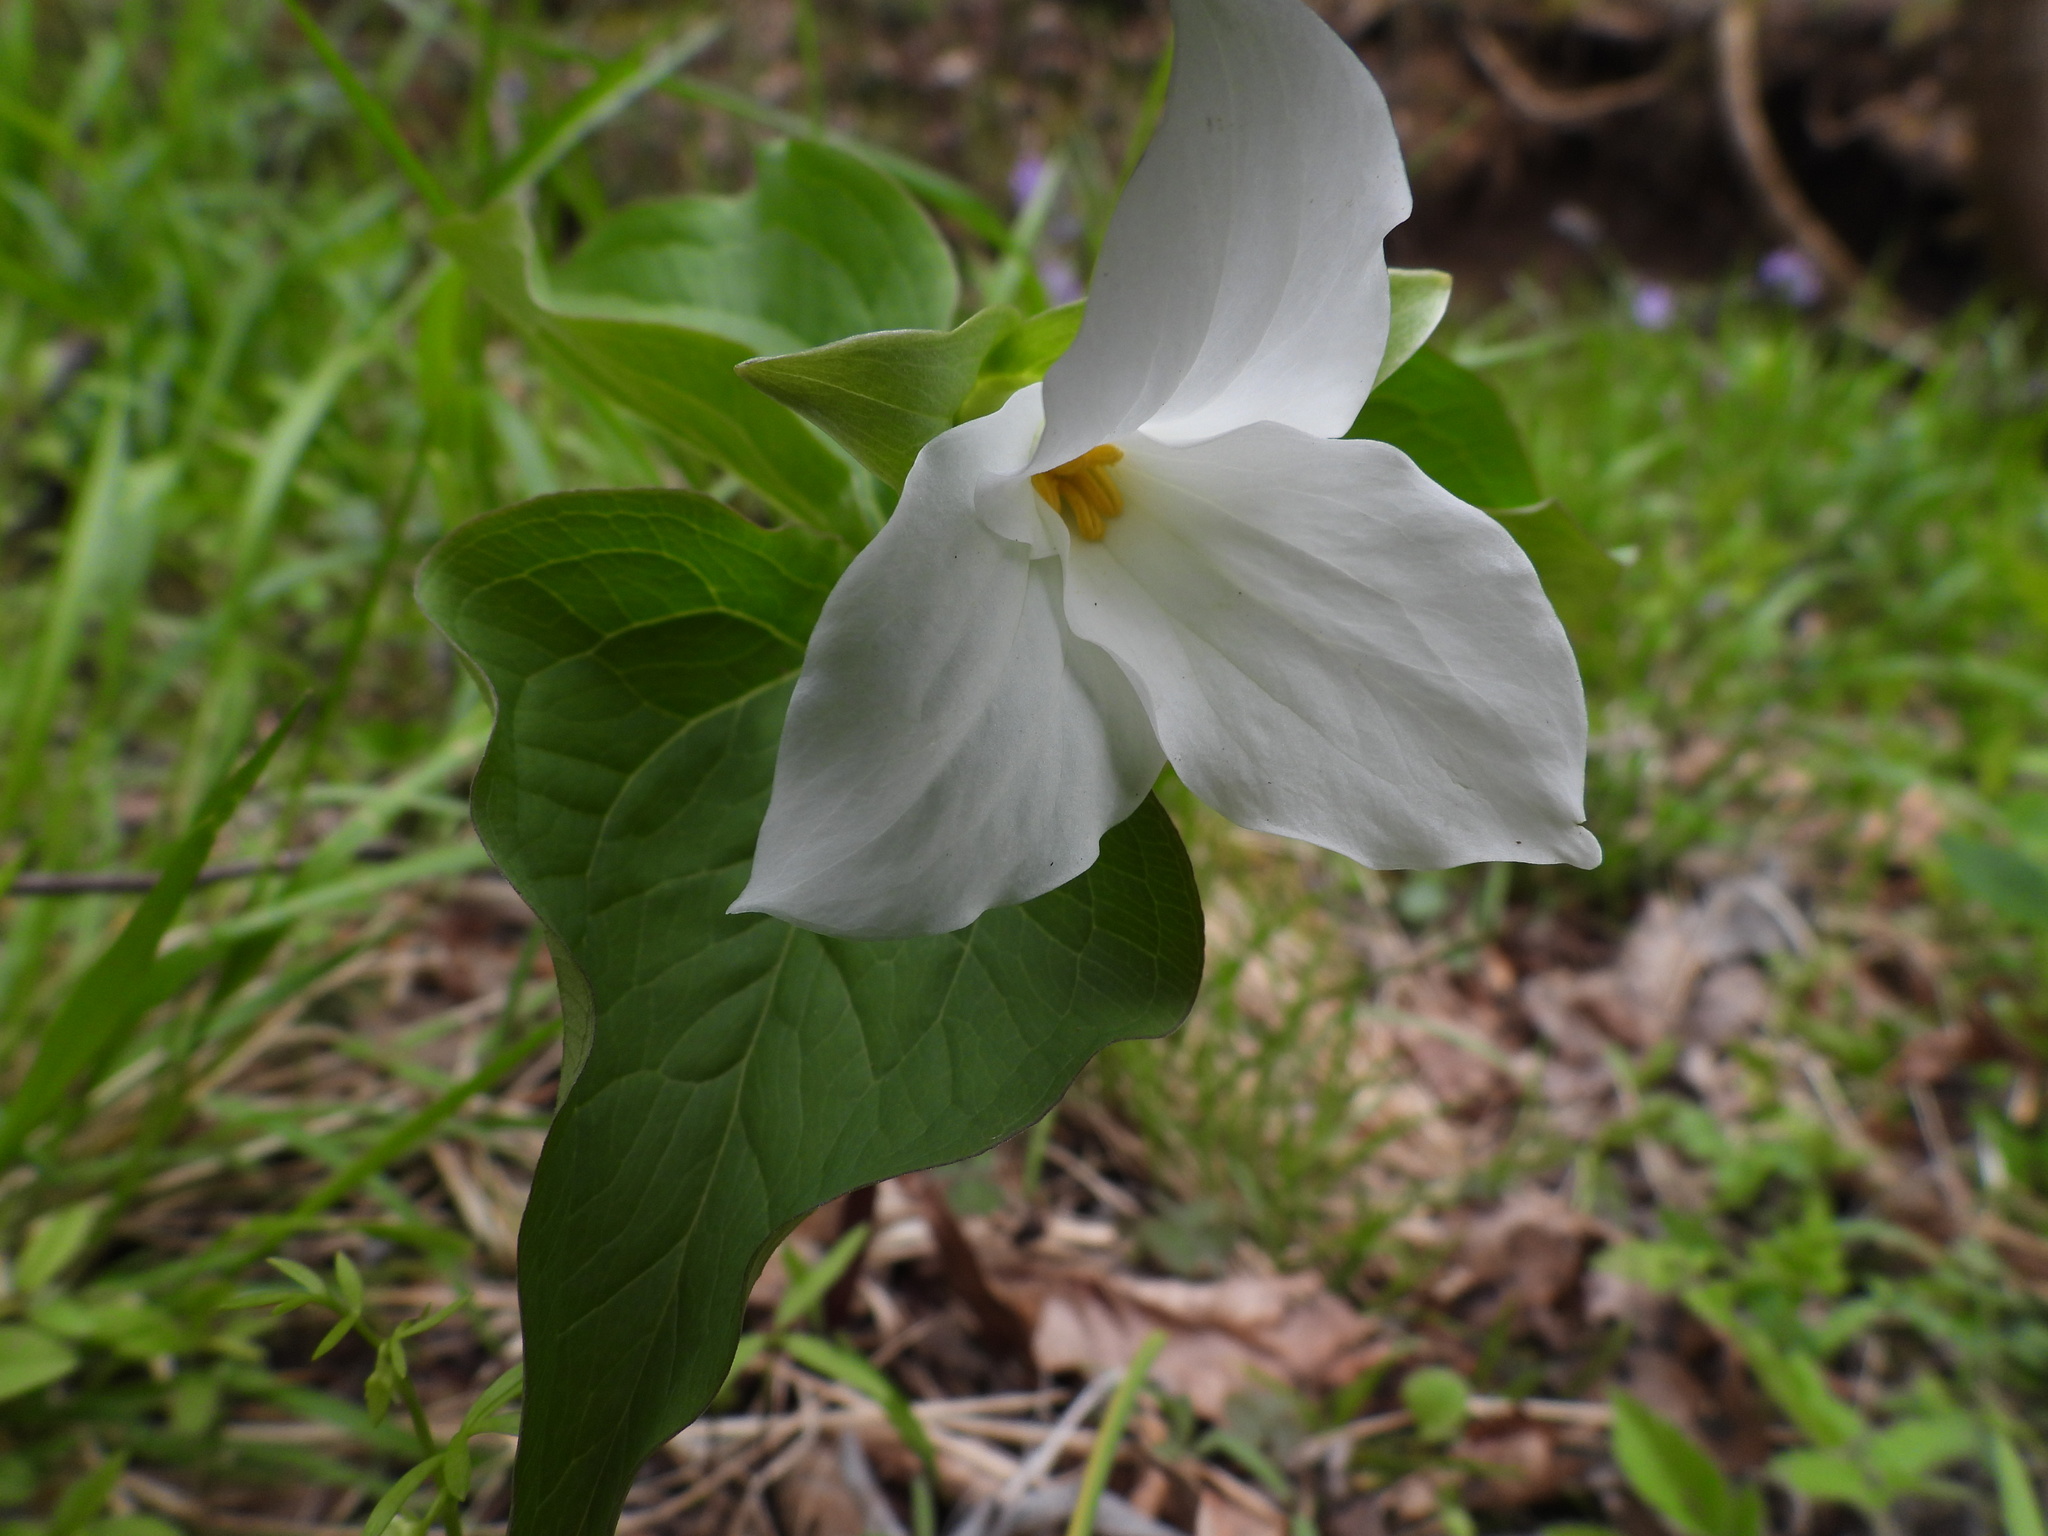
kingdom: Plantae
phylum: Tracheophyta
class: Liliopsida
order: Liliales
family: Melanthiaceae
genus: Trillium
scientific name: Trillium grandiflorum
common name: Great white trillium
